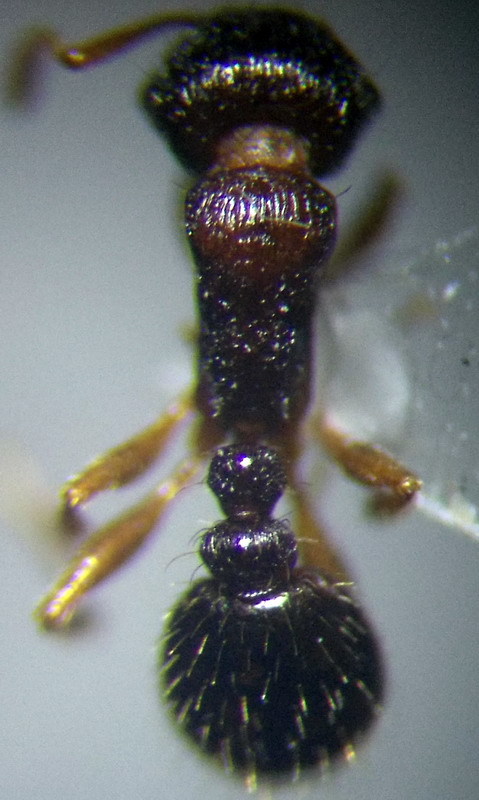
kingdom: Animalia
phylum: Arthropoda
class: Insecta
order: Hymenoptera
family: Formicidae
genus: Tetramorium
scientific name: Tetramorium caespitum
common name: Pavement ant
